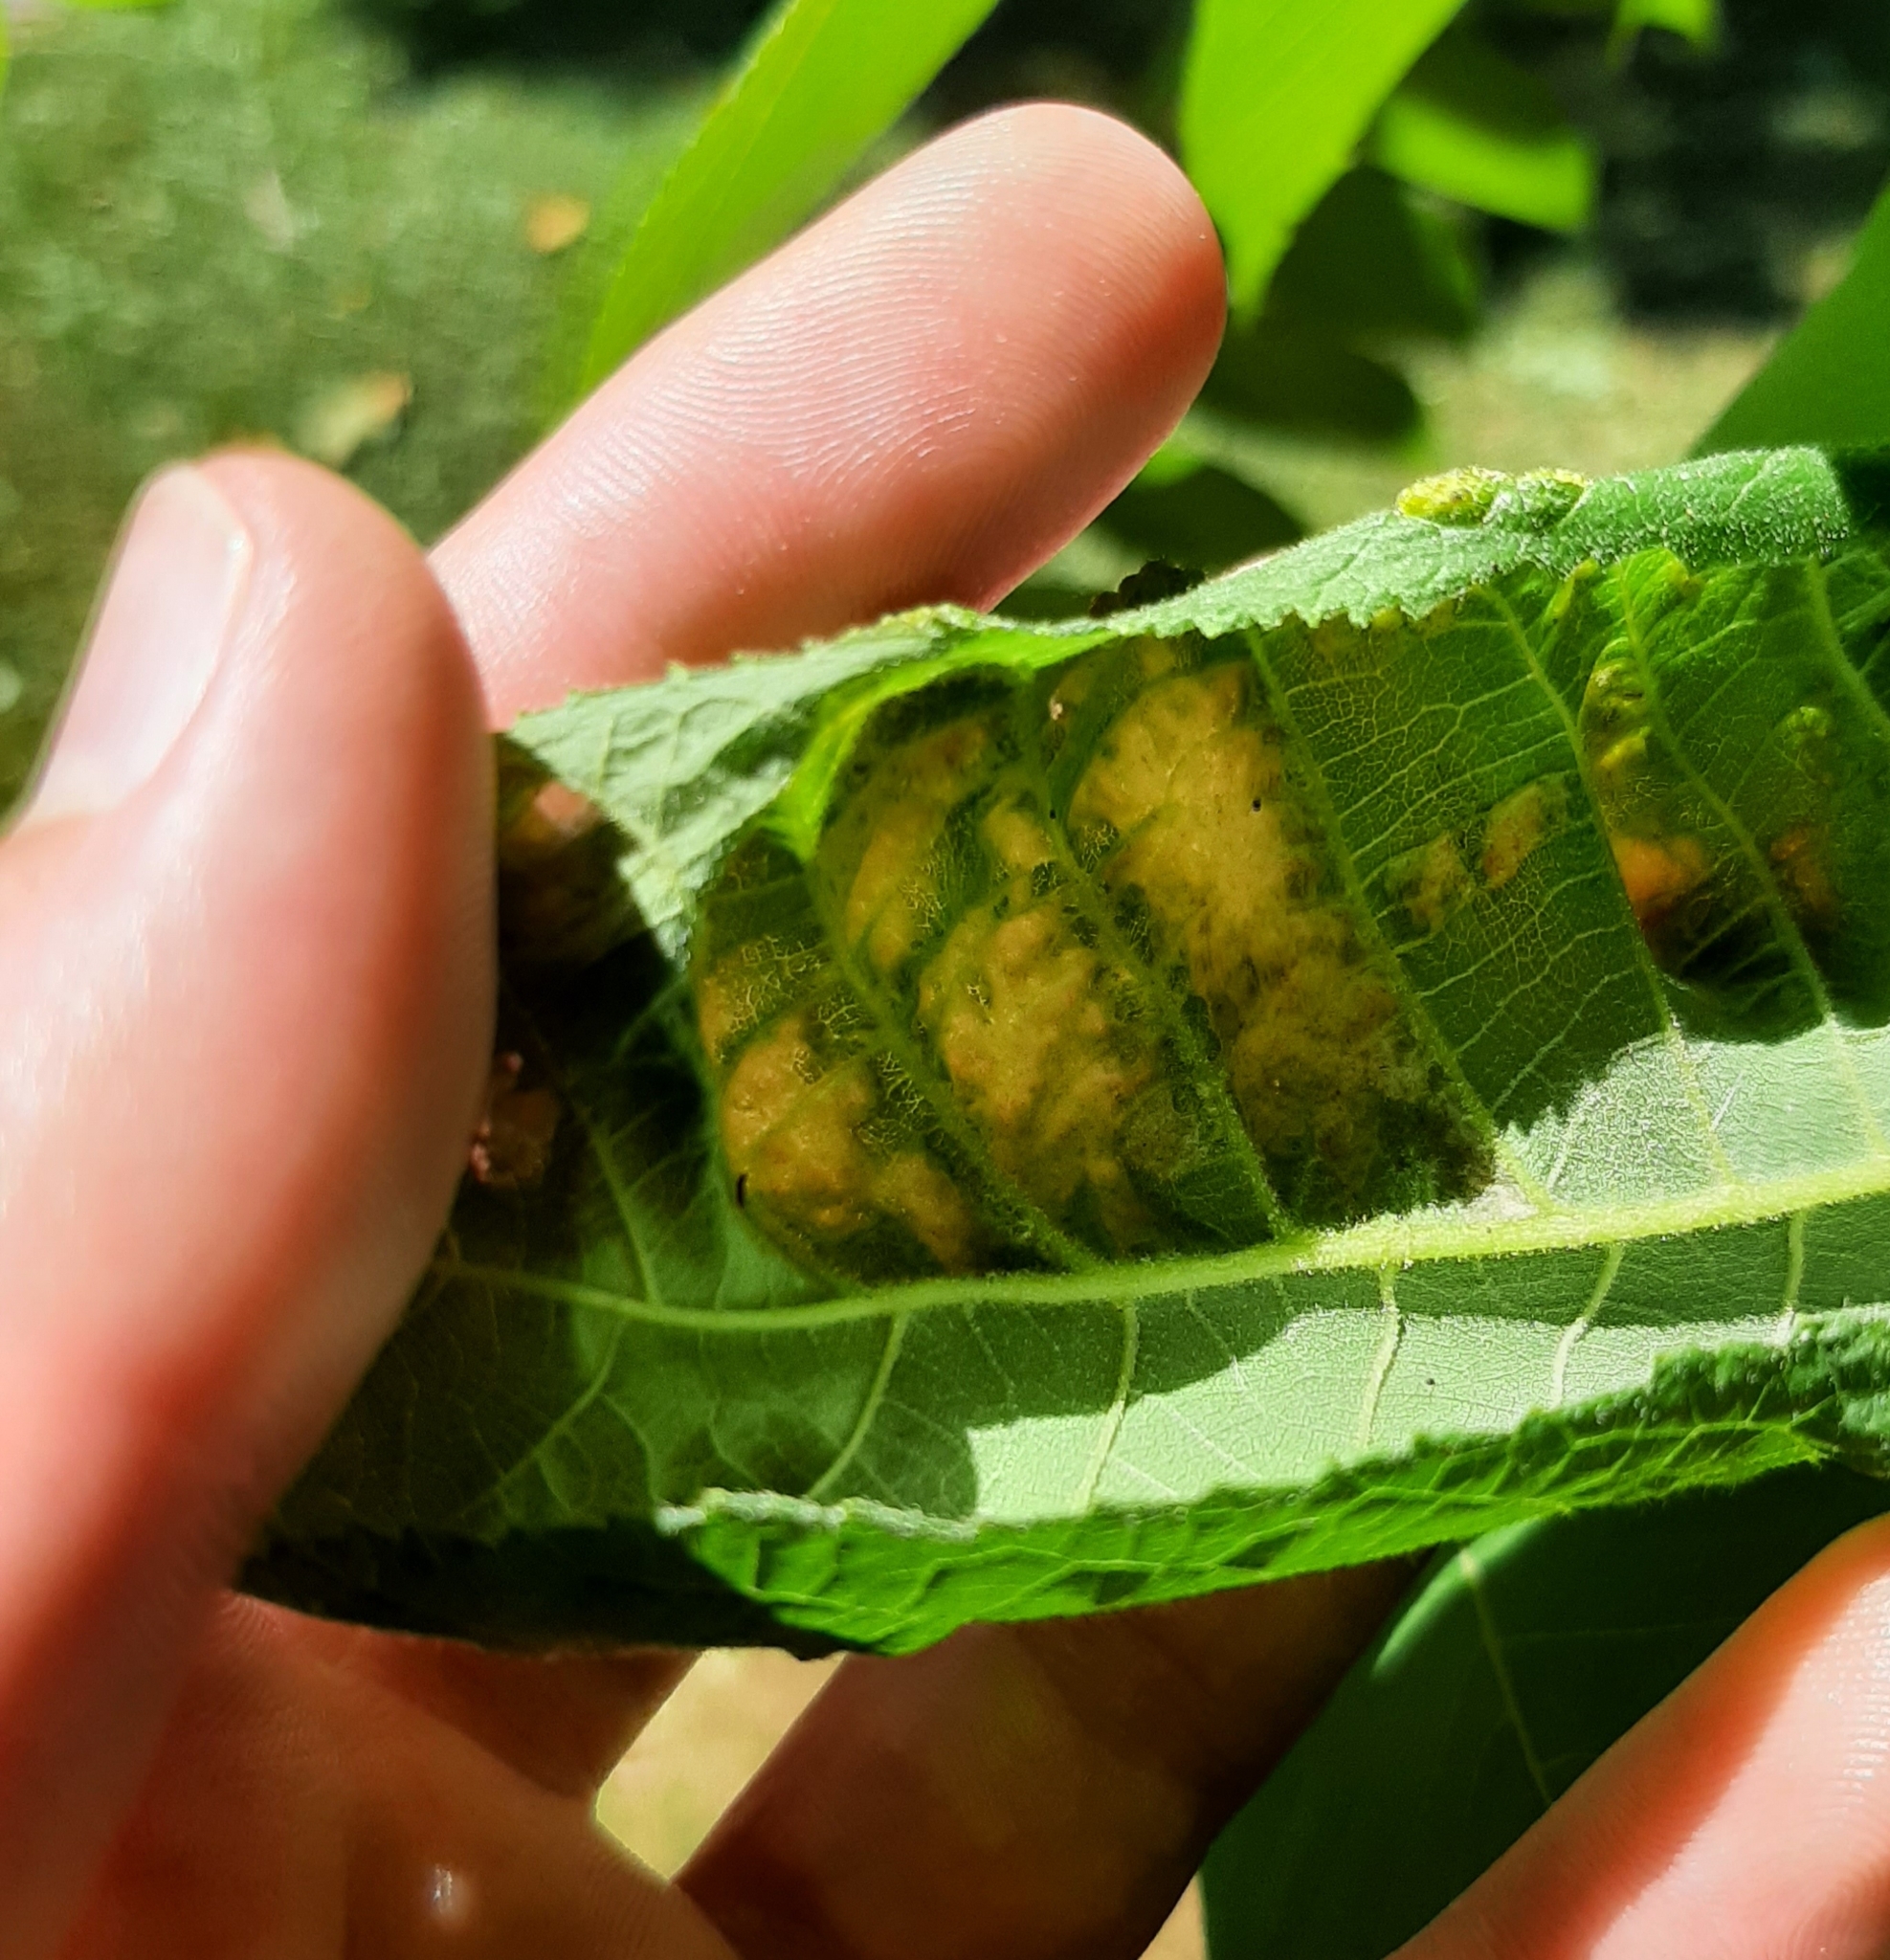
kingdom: Animalia
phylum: Arthropoda
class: Arachnida
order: Trombidiformes
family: Eriophyidae
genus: Aceria
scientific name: Aceria
